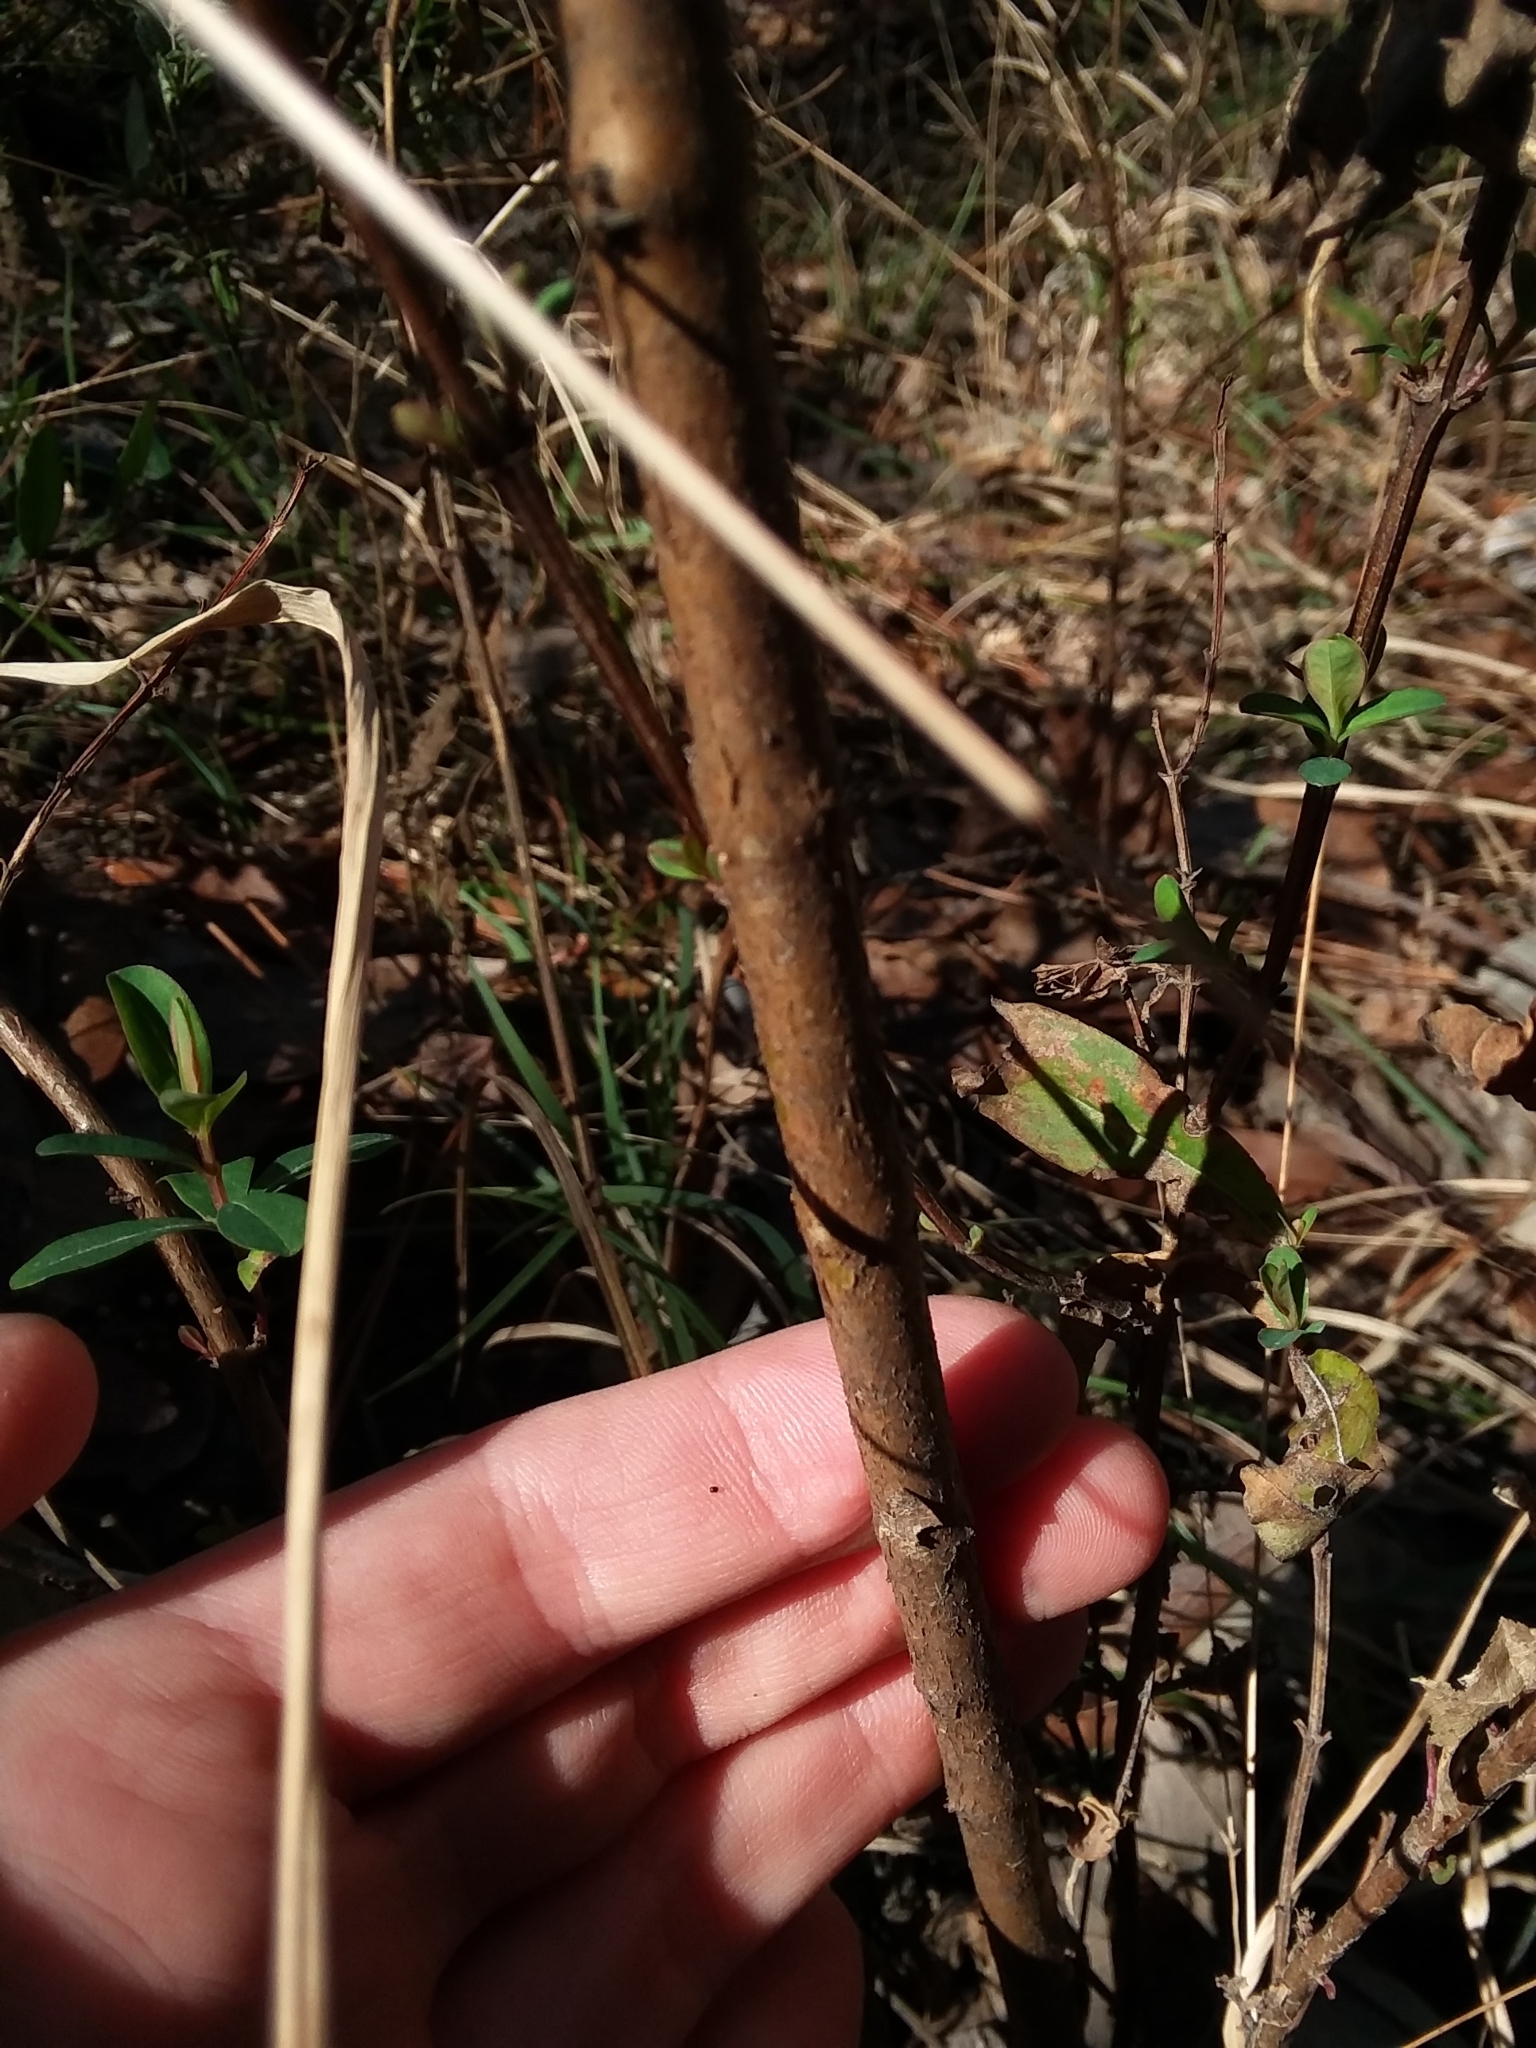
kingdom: Plantae
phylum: Tracheophyta
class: Magnoliopsida
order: Malpighiales
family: Hypericaceae
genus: Hypericum
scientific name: Hypericum nudiflorum
